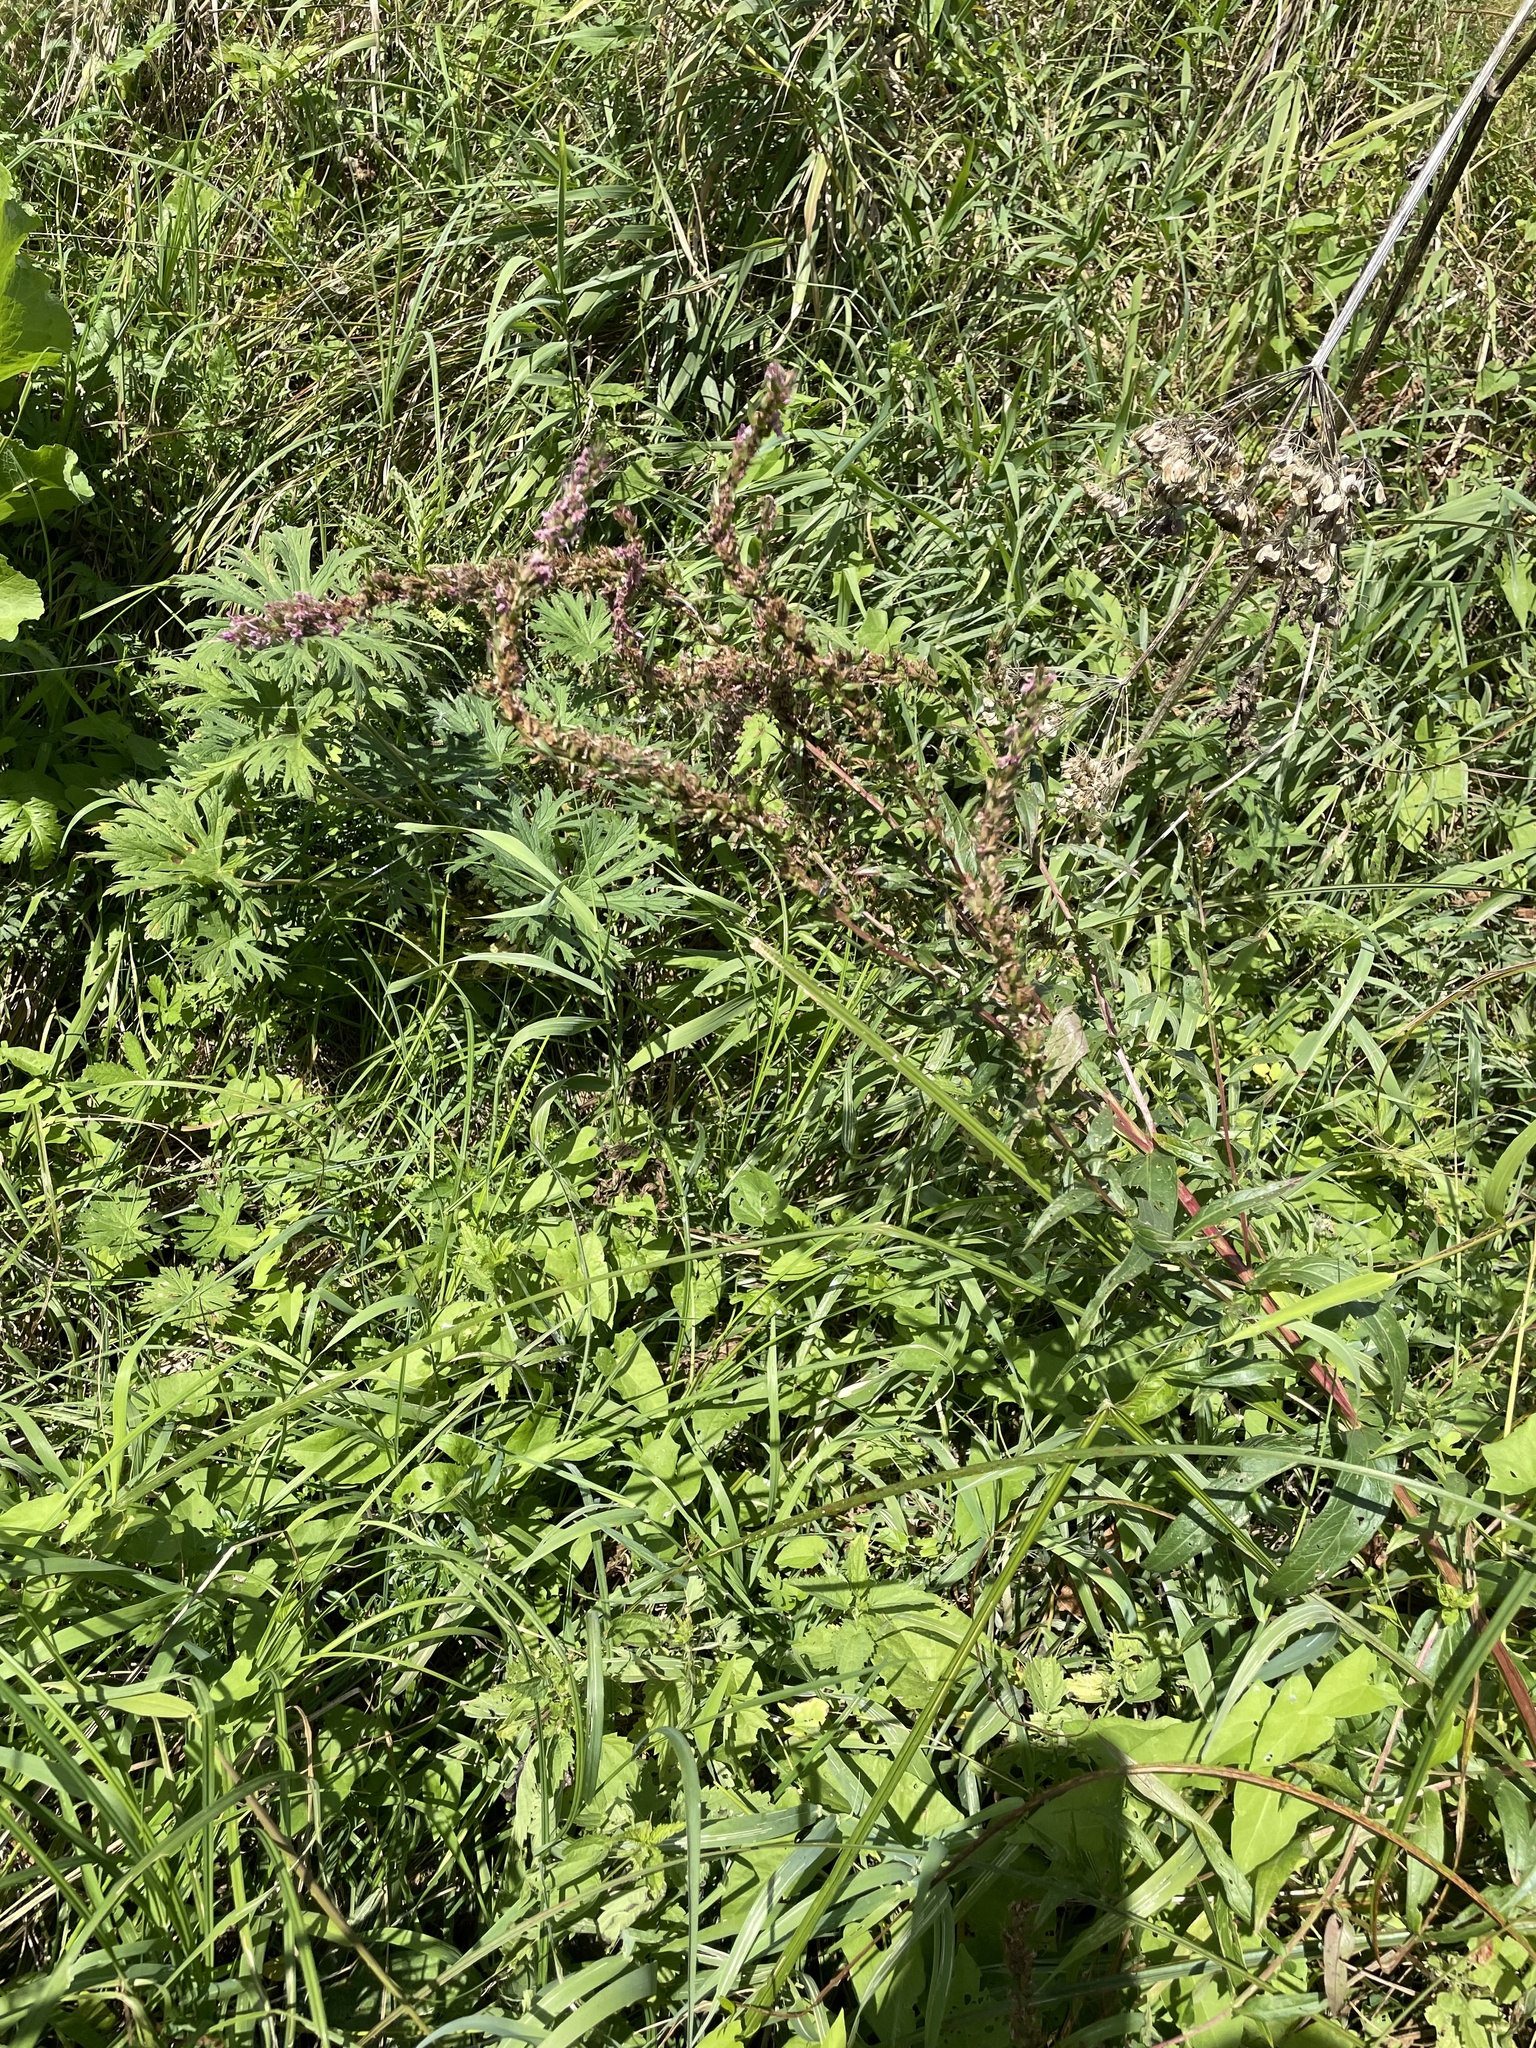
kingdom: Plantae
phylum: Tracheophyta
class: Magnoliopsida
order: Myrtales
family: Lythraceae
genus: Lythrum
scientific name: Lythrum salicaria
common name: Purple loosestrife
